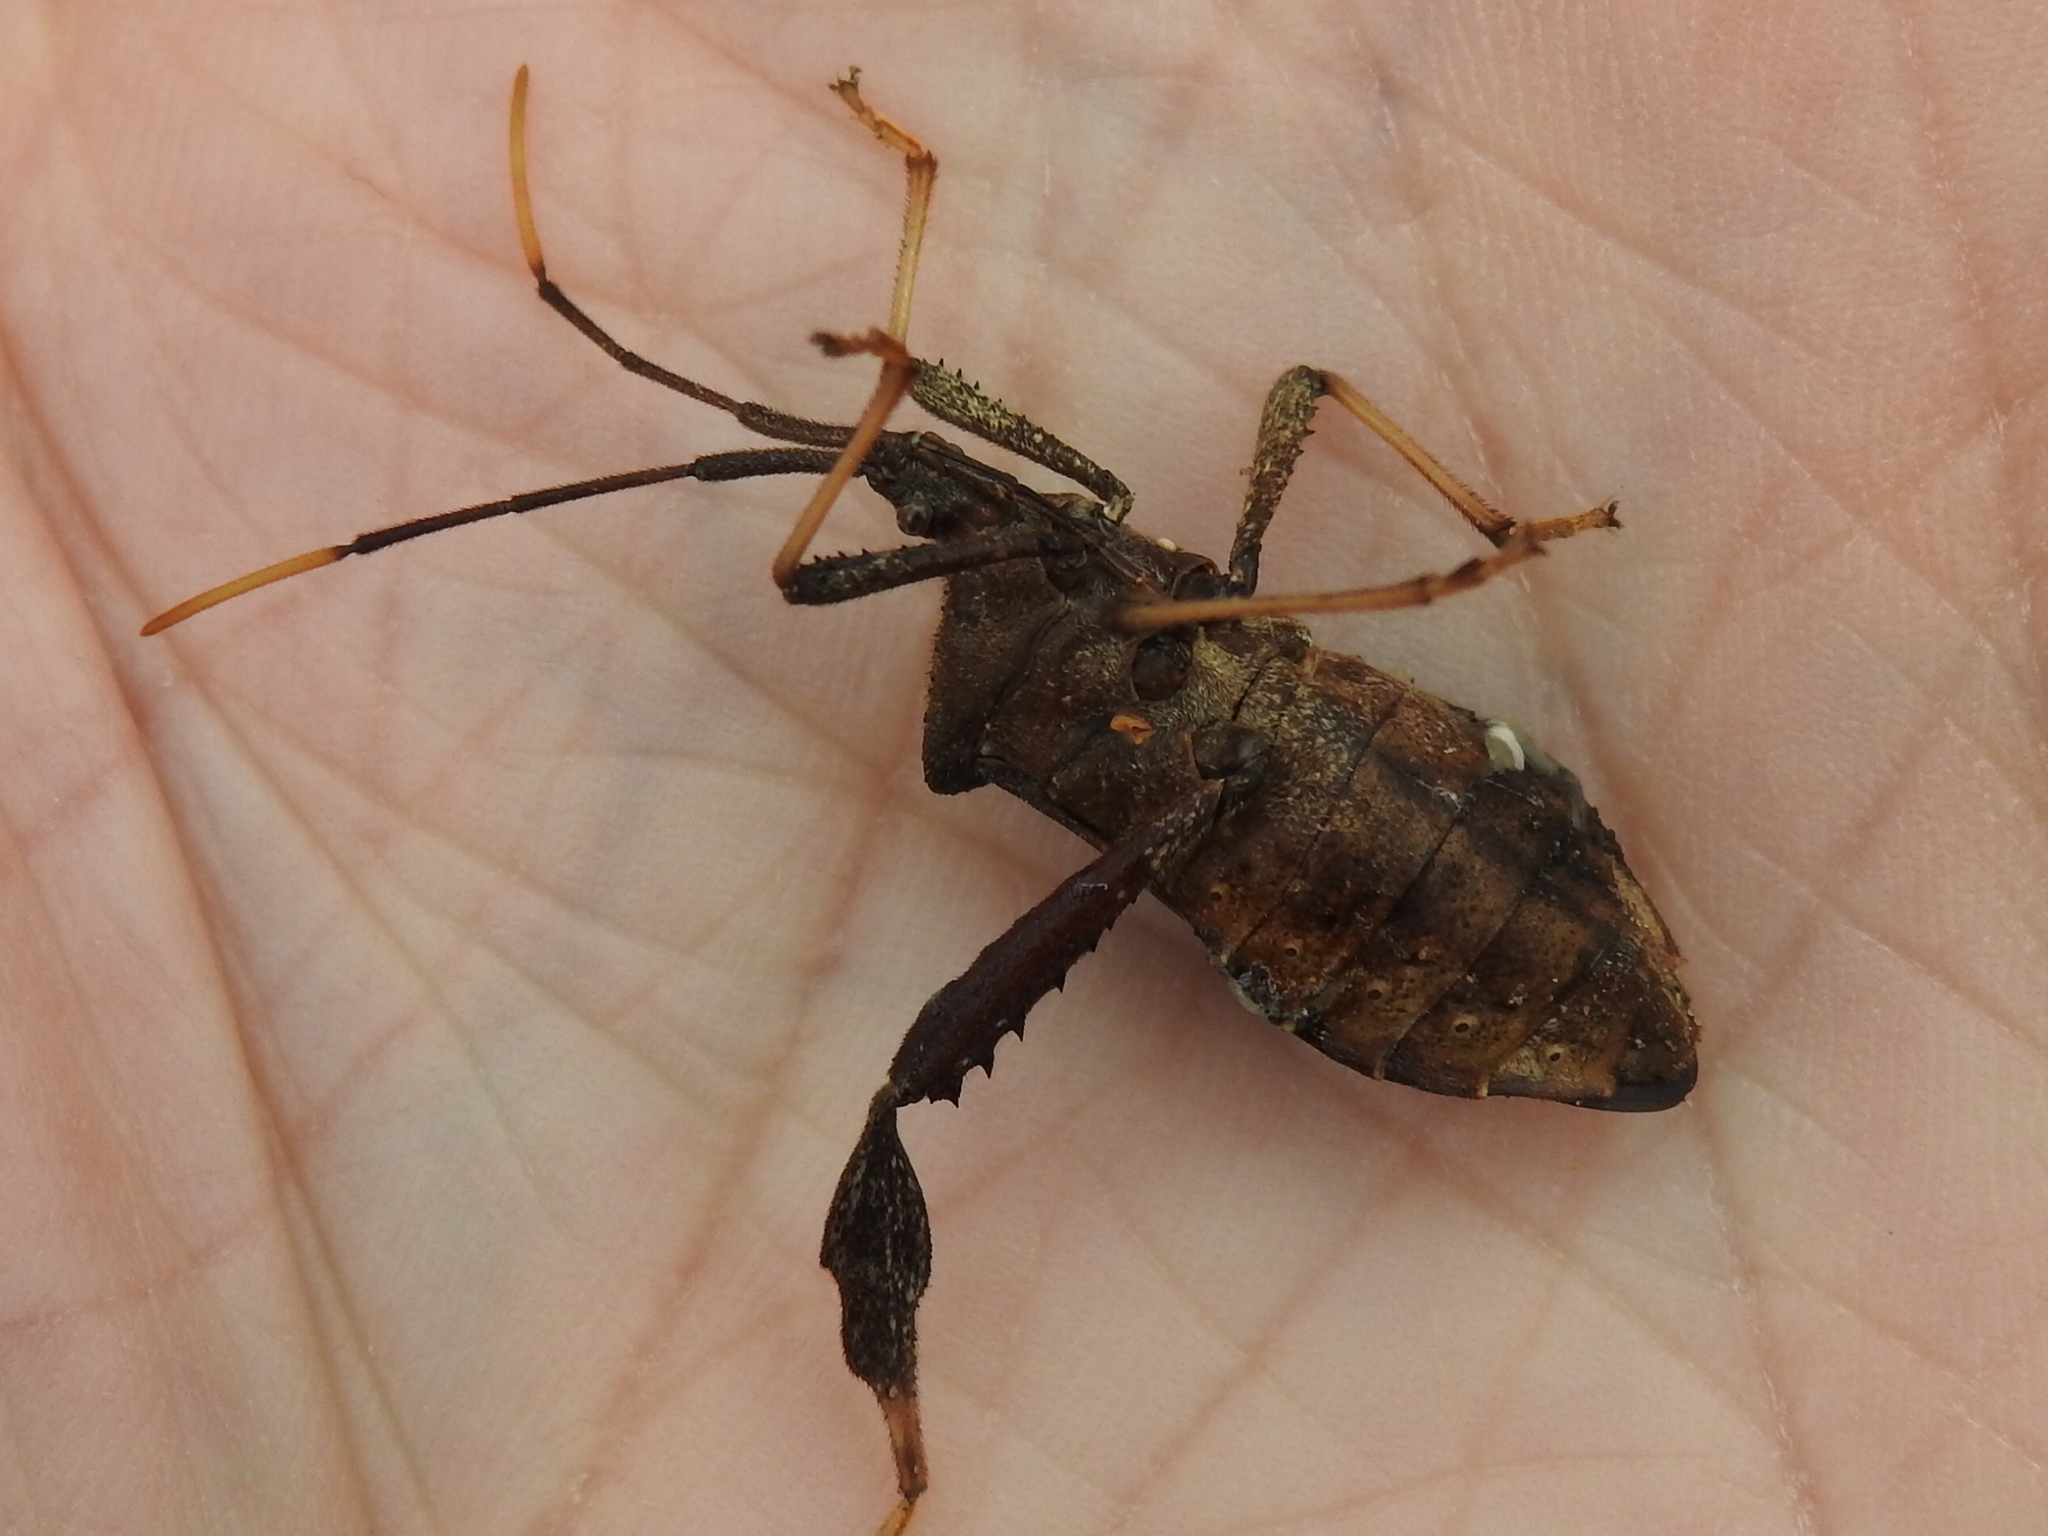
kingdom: Animalia
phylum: Arthropoda
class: Insecta
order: Hemiptera
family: Coreidae
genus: Acanthocephala
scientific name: Acanthocephala terminalis
